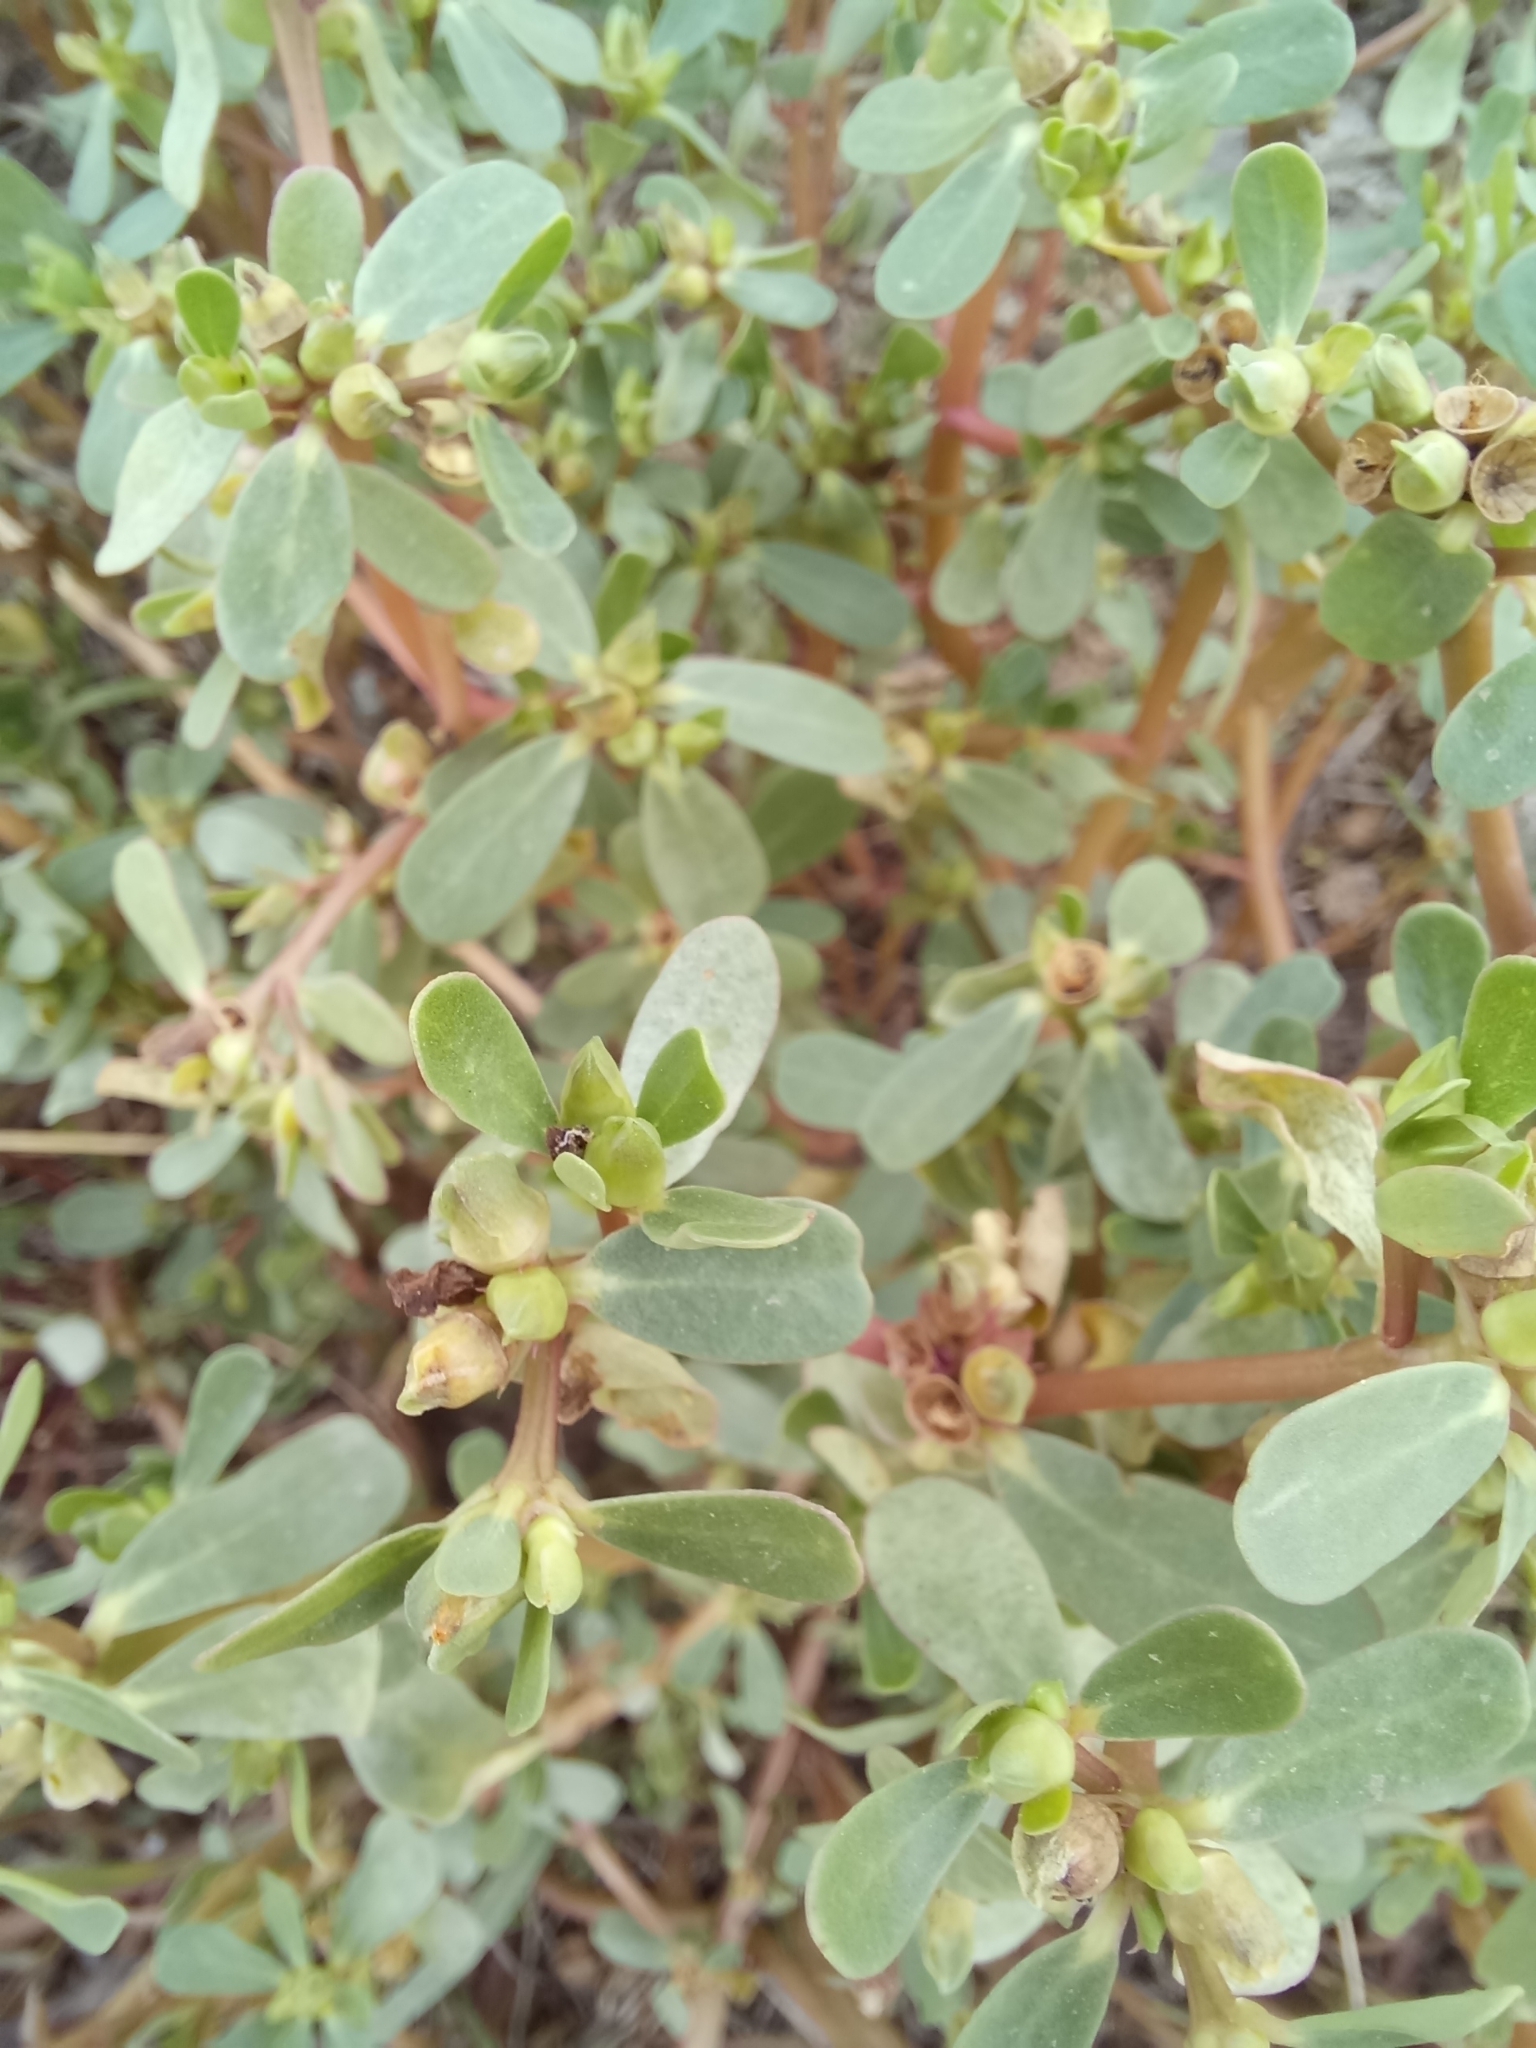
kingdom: Plantae
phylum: Tracheophyta
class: Magnoliopsida
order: Caryophyllales
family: Portulacaceae
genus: Portulaca
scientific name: Portulaca oleracea
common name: Common purslane
